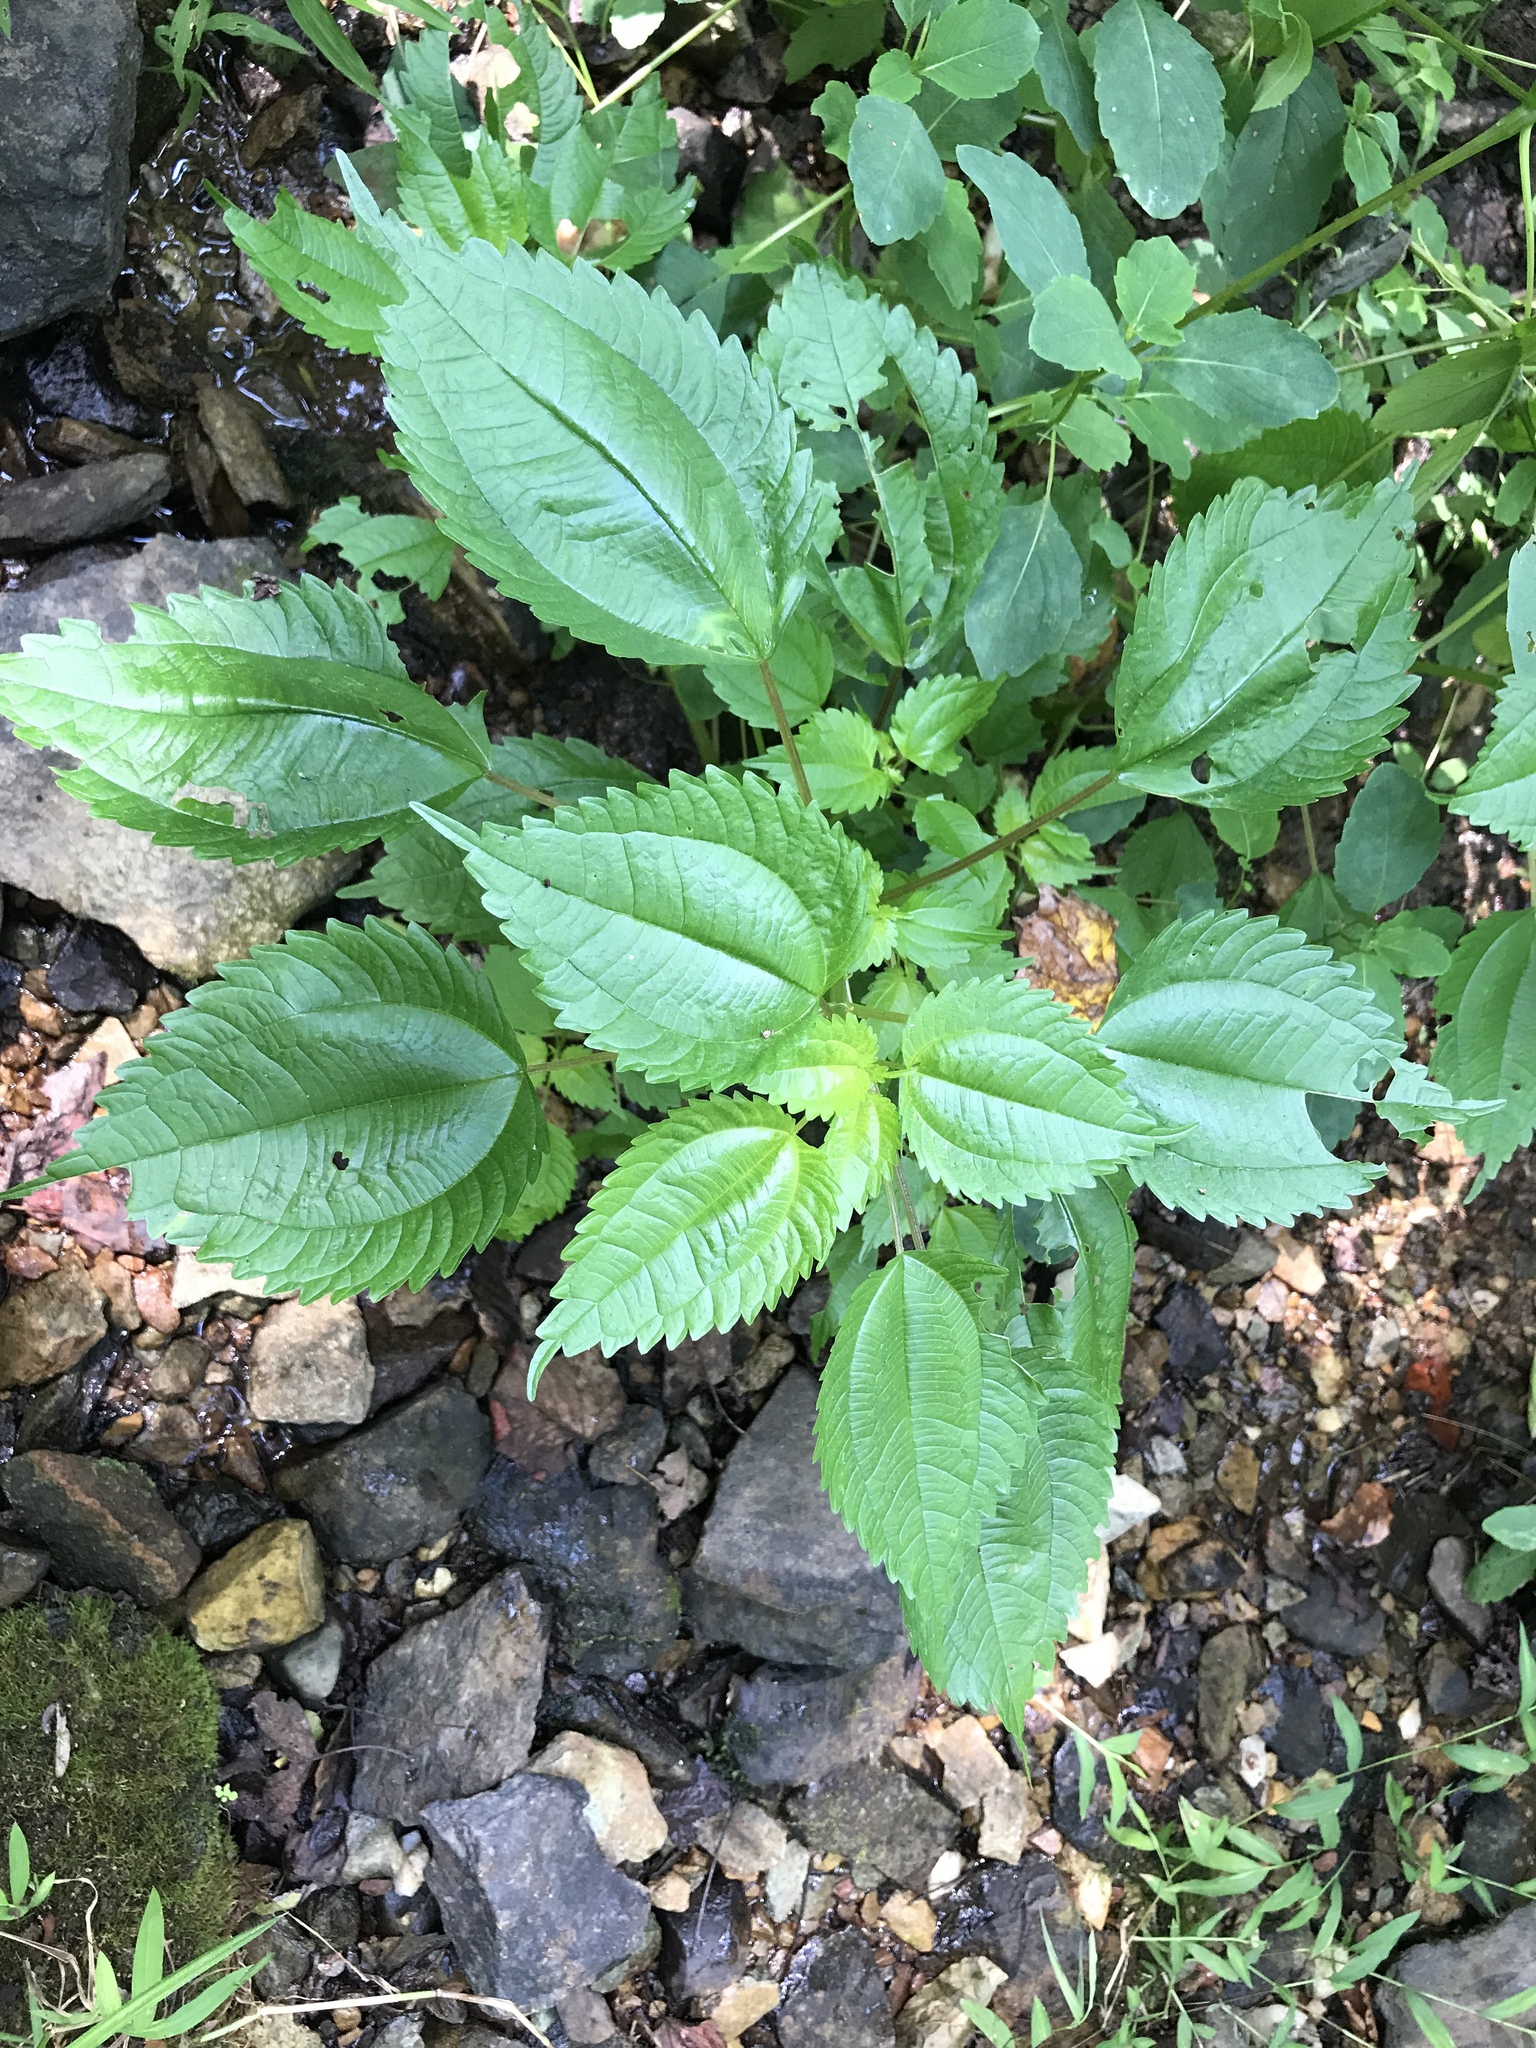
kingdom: Plantae
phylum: Tracheophyta
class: Magnoliopsida
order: Rosales
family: Urticaceae
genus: Pilea
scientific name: Pilea pumila
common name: Clearweed
